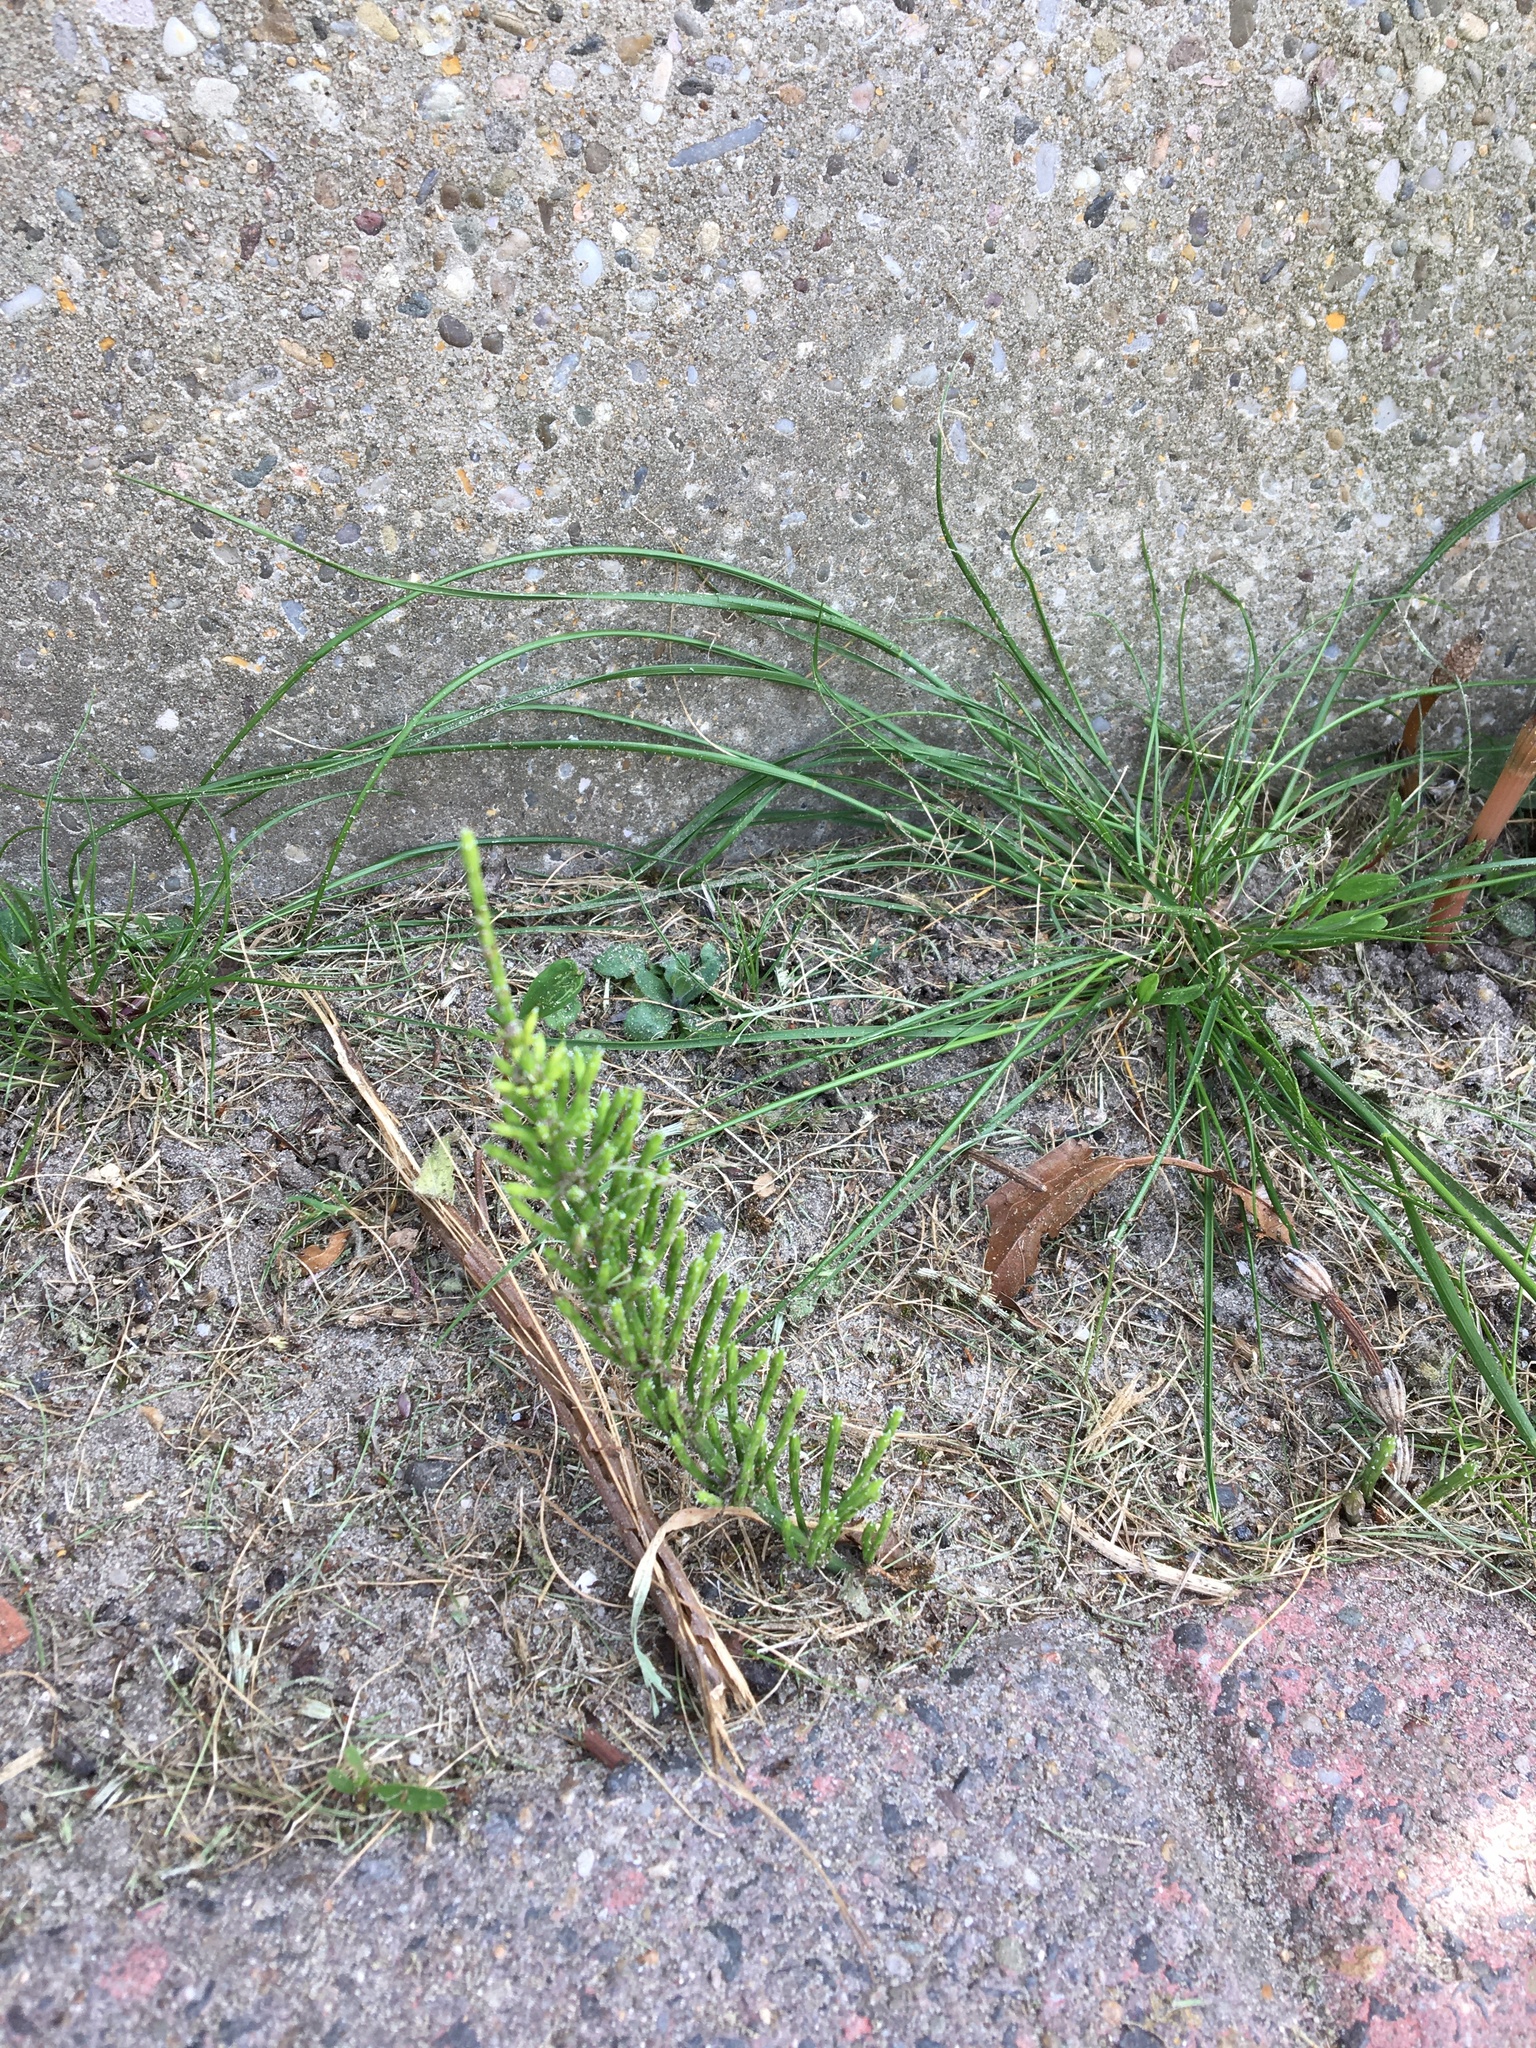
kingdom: Plantae
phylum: Tracheophyta
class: Polypodiopsida
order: Equisetales
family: Equisetaceae
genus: Equisetum
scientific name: Equisetum arvense
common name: Field horsetail
